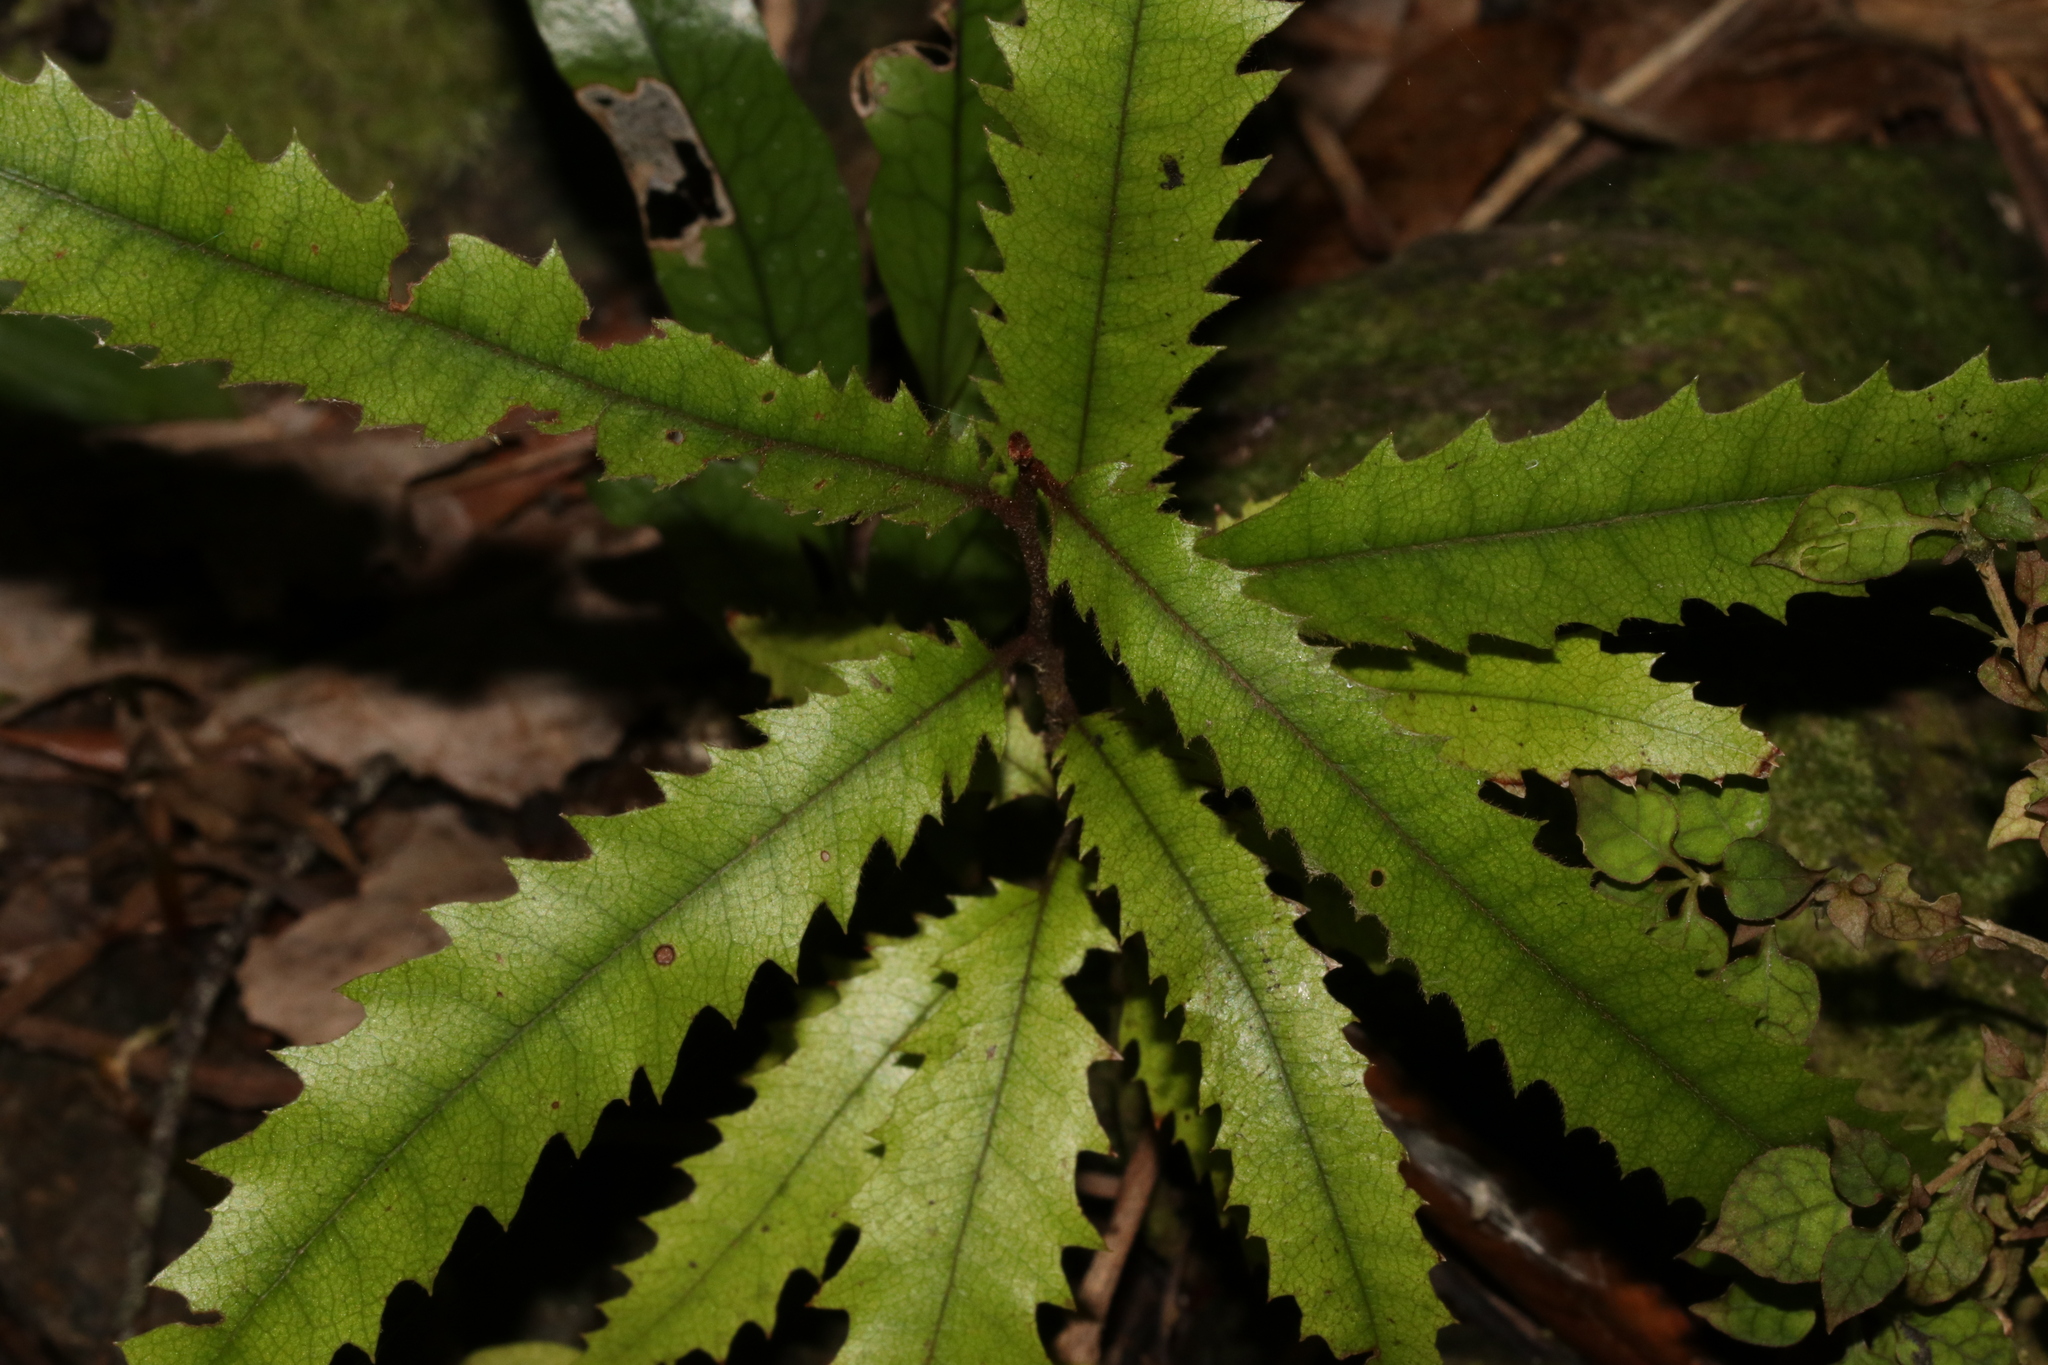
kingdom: Plantae
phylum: Tracheophyta
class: Magnoliopsida
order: Proteales
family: Proteaceae
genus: Knightia
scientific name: Knightia excelsa
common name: New zealand-honeysuckle
